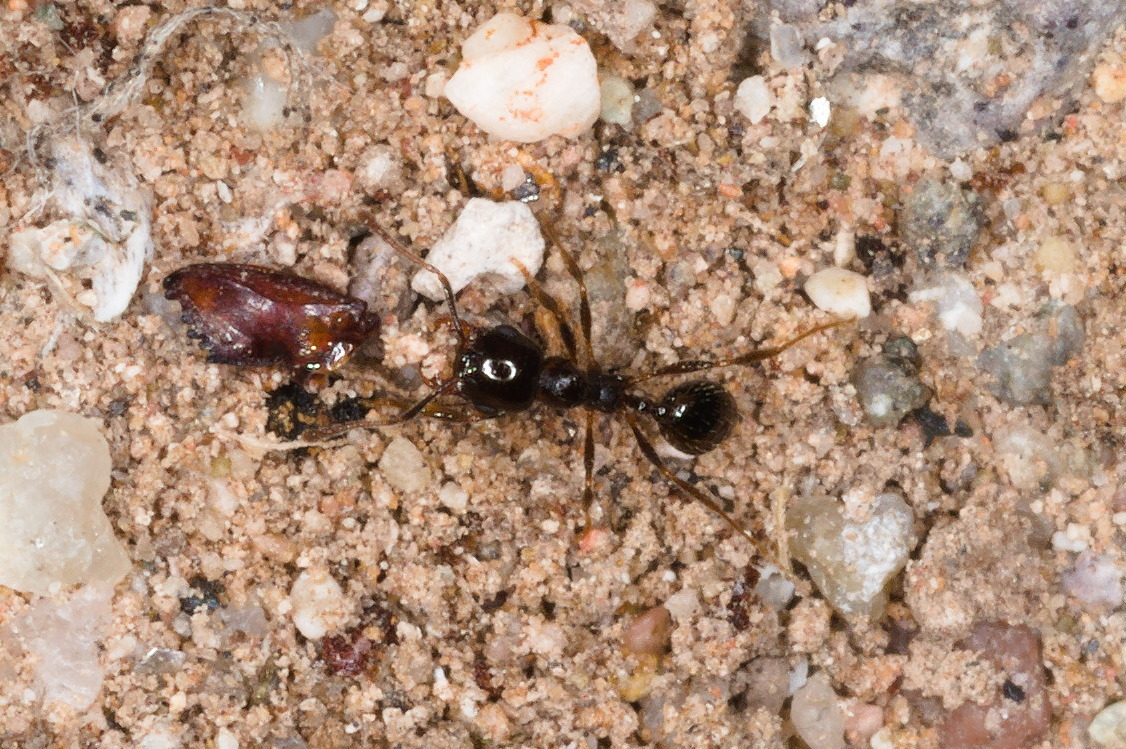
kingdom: Animalia
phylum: Arthropoda
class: Insecta
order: Hymenoptera
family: Formicidae
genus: Pheidole
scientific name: Pheidole xerophila
